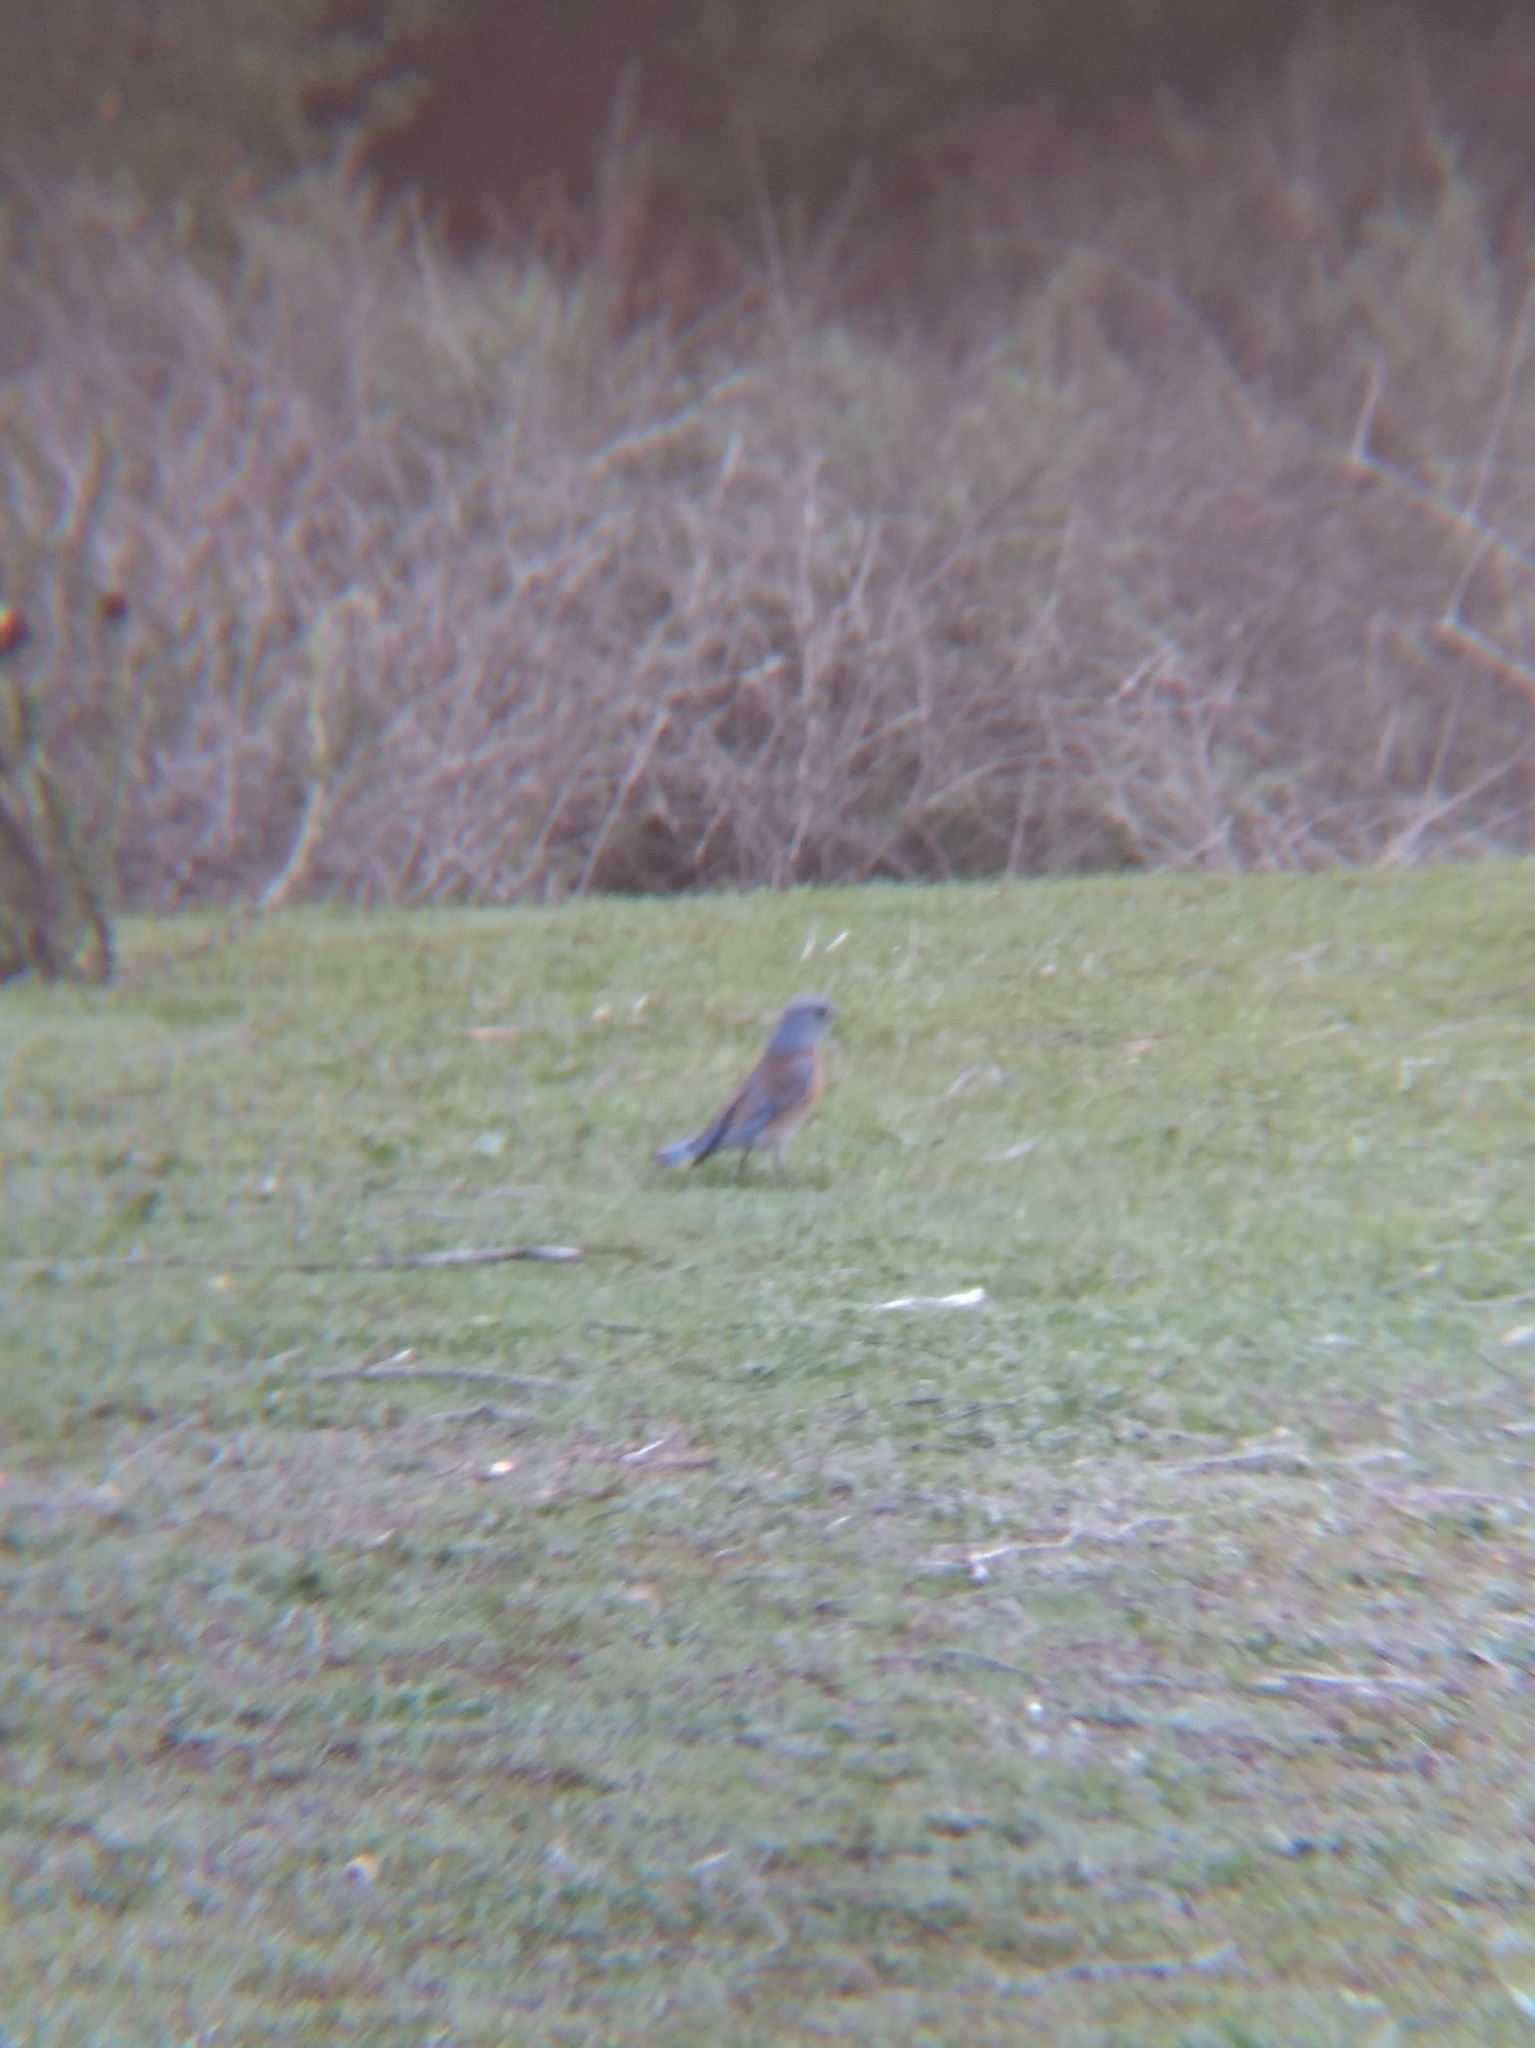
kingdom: Animalia
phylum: Chordata
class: Aves
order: Passeriformes
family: Turdidae
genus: Sialia
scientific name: Sialia mexicana
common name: Western bluebird
